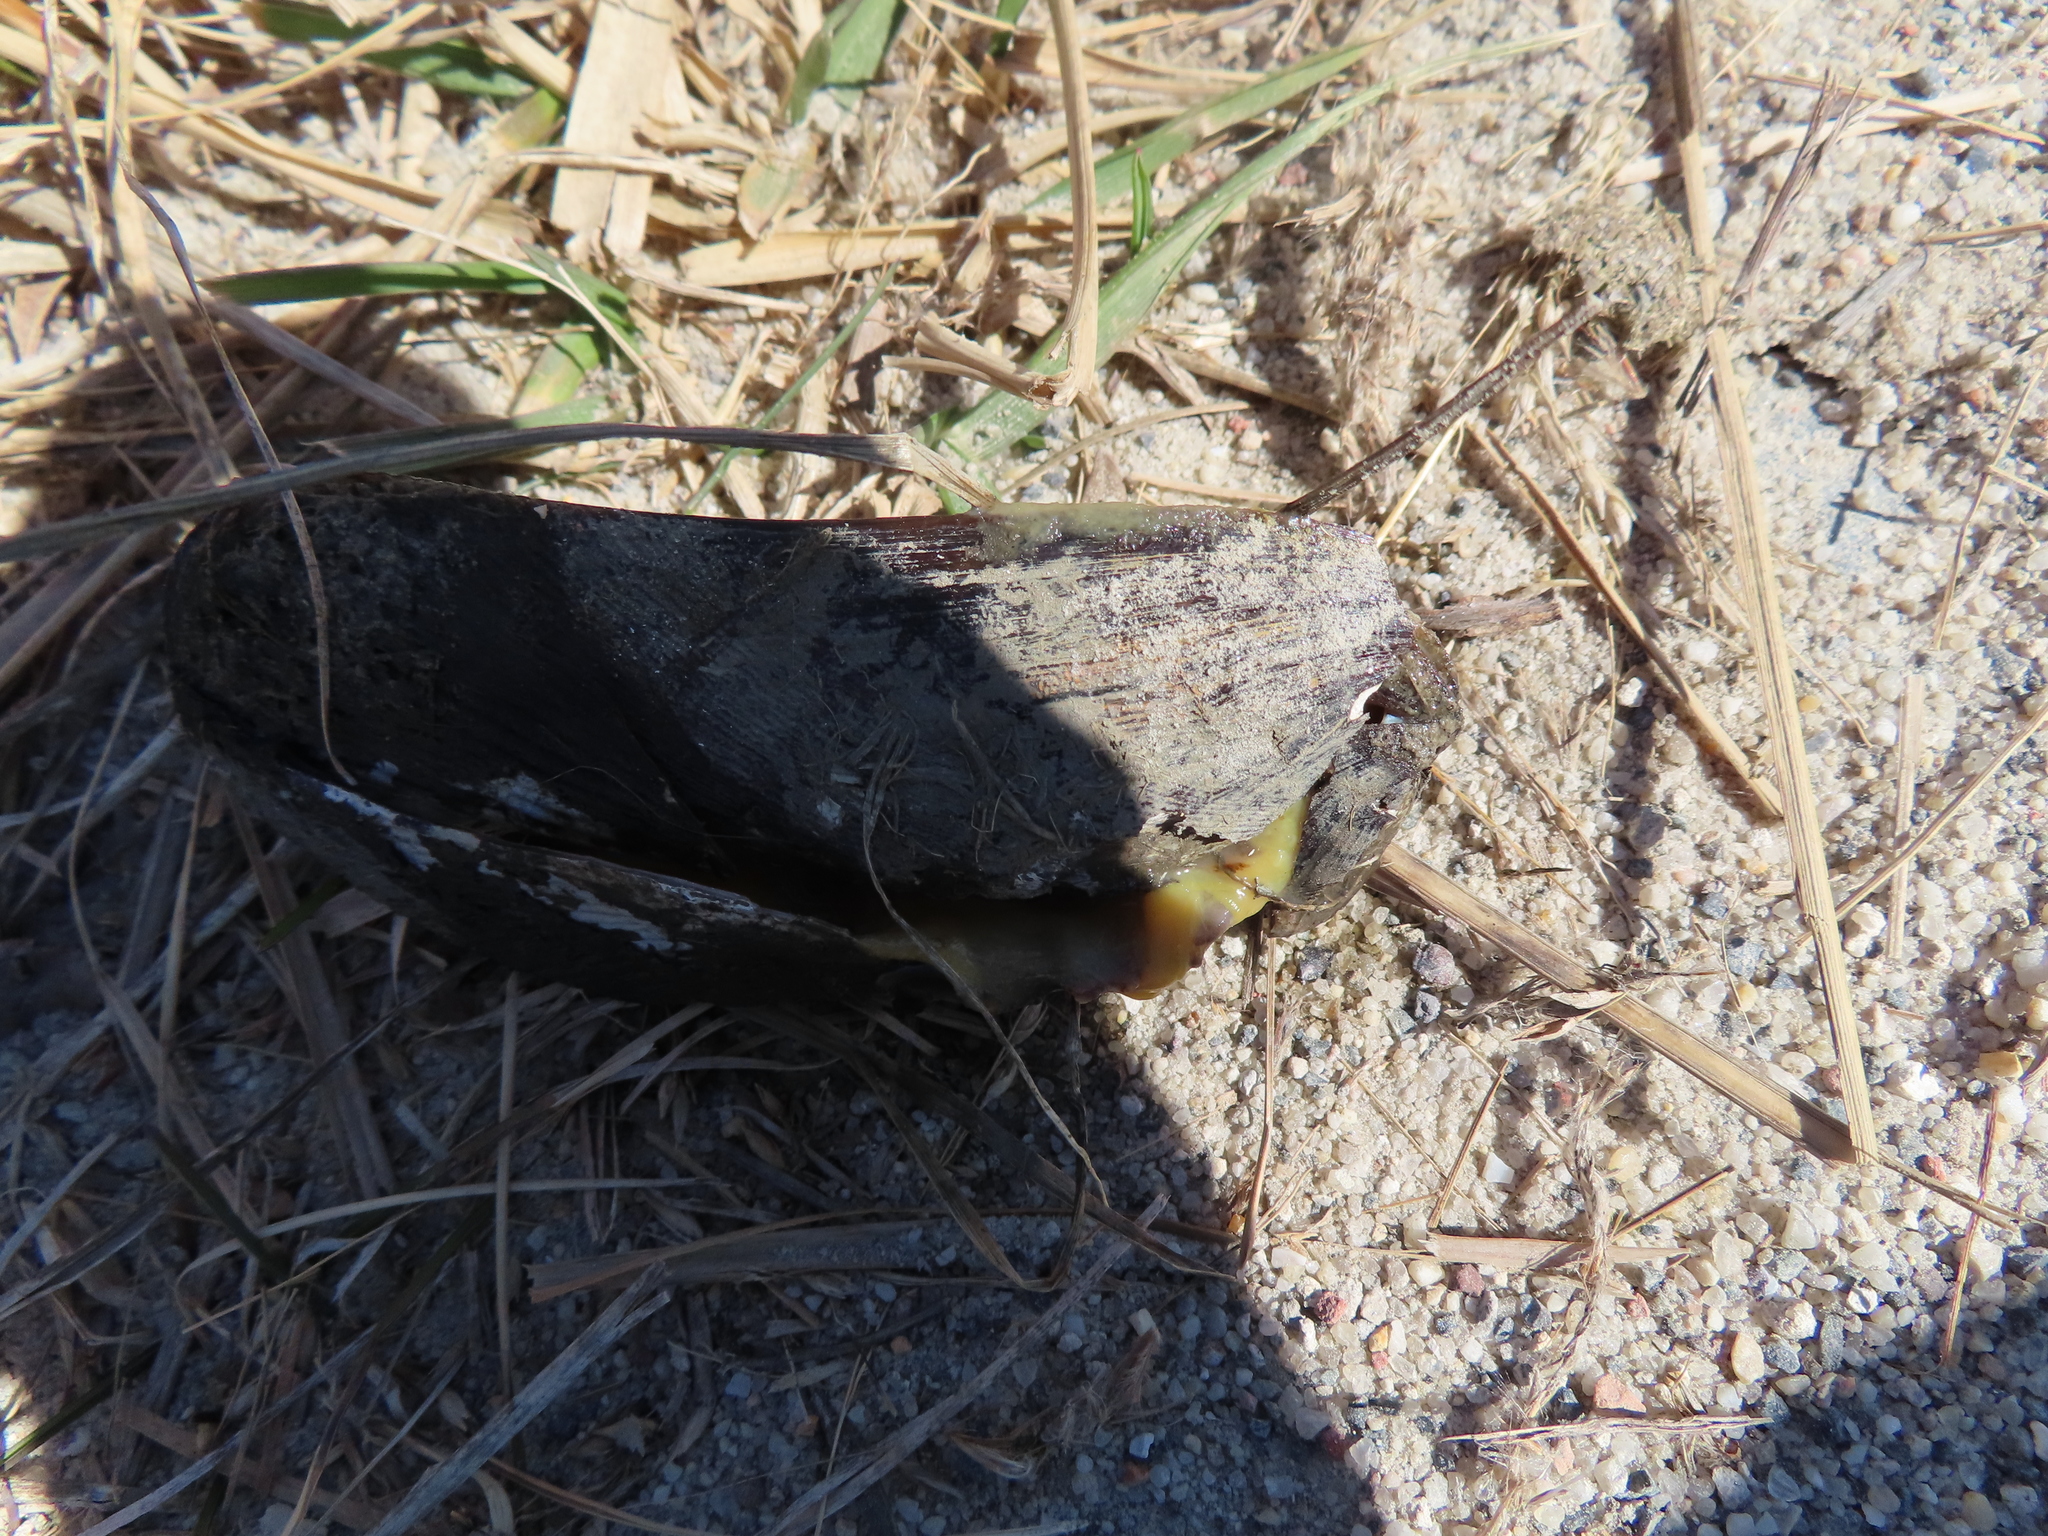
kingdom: Animalia
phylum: Mollusca
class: Bivalvia
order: Mytilida
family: Mytilidae
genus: Geukensia
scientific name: Geukensia demissa
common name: Ribbed mussel
